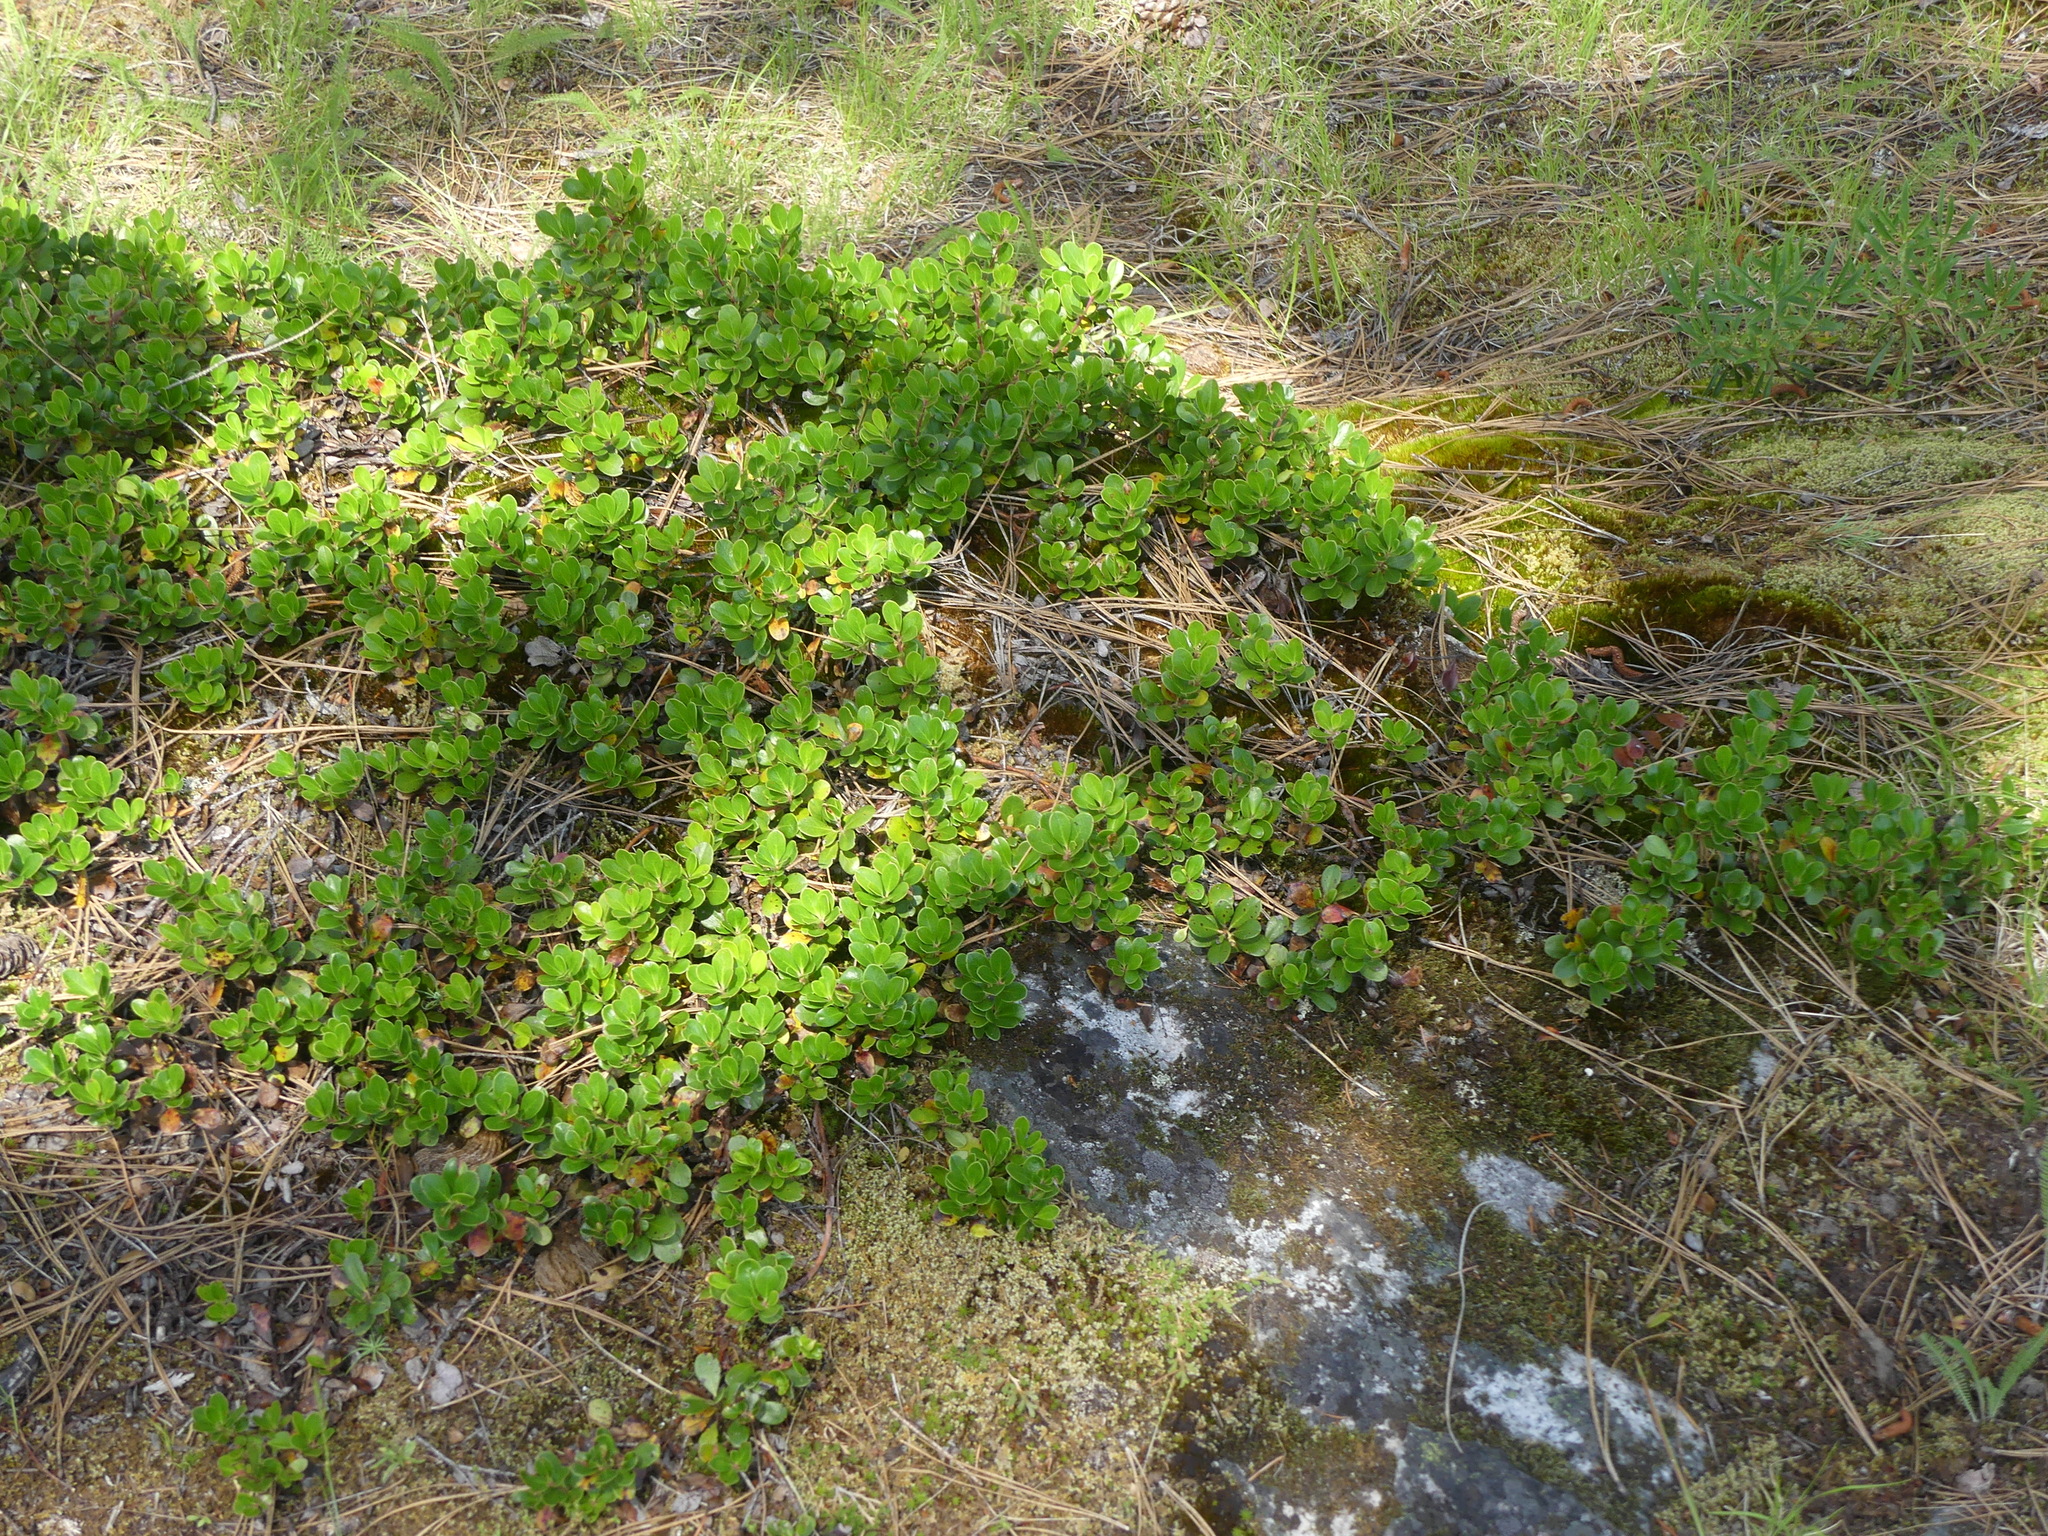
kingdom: Plantae
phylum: Tracheophyta
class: Magnoliopsida
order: Ericales
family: Ericaceae
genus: Arctostaphylos
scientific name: Arctostaphylos uva-ursi
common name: Bearberry
